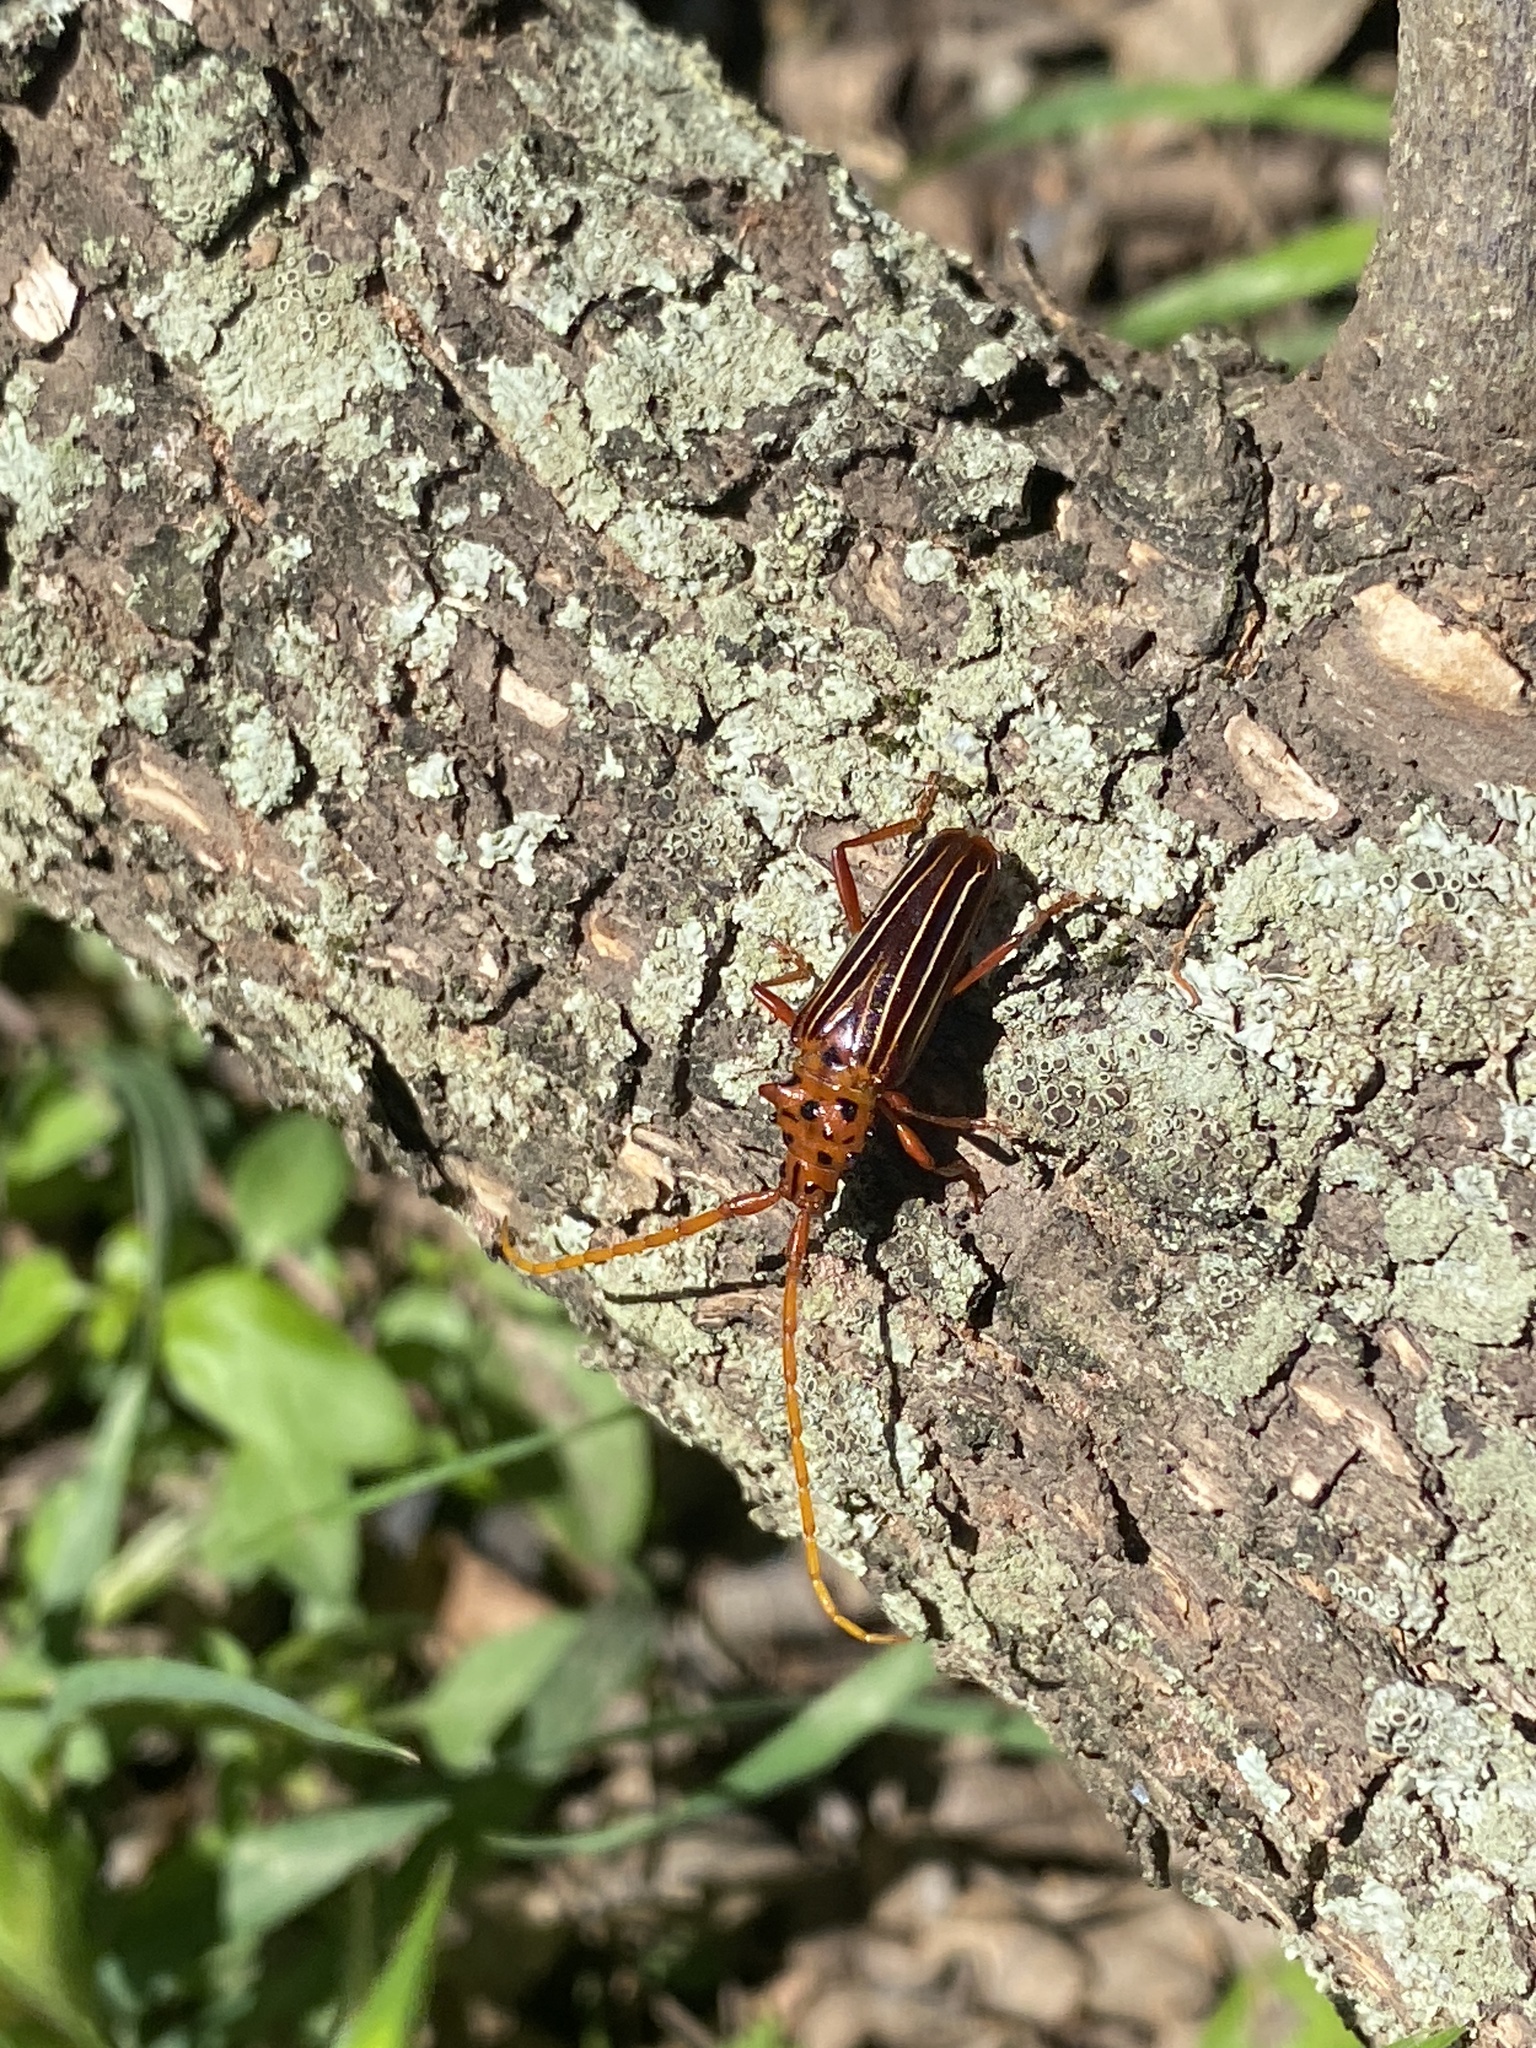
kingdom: Animalia
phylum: Arthropoda
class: Insecta
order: Coleoptera
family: Cerambycidae
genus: Chydarteres
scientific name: Chydarteres striatus
